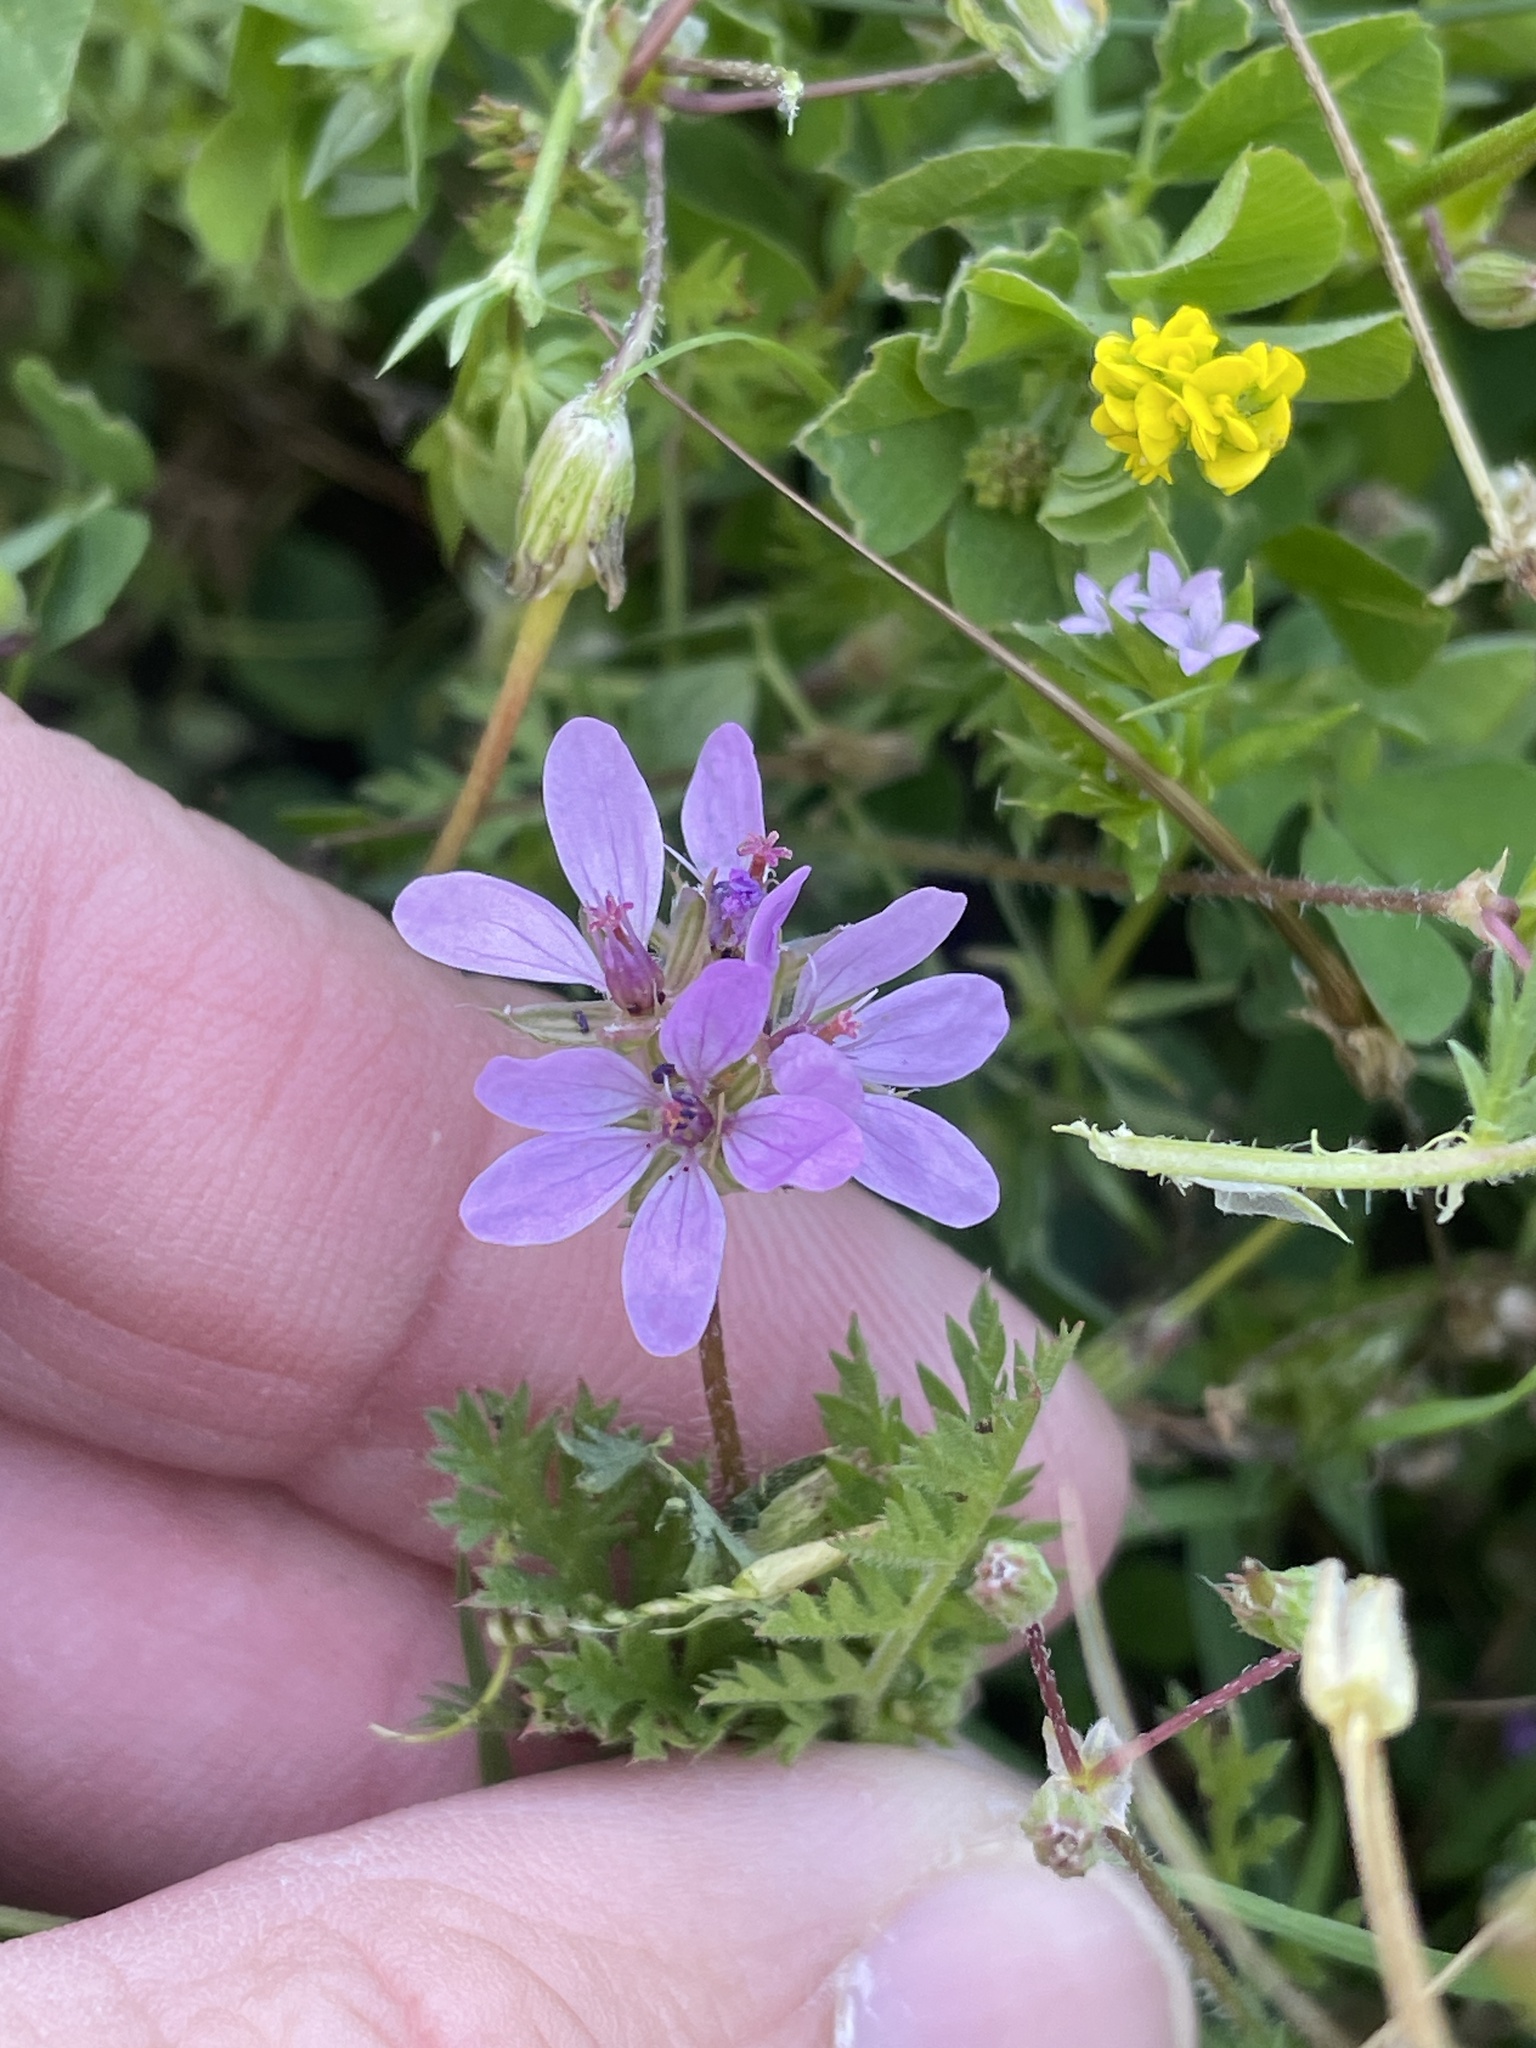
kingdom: Plantae
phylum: Tracheophyta
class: Magnoliopsida
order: Geraniales
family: Geraniaceae
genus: Erodium
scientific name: Erodium cicutarium
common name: Common stork's-bill
